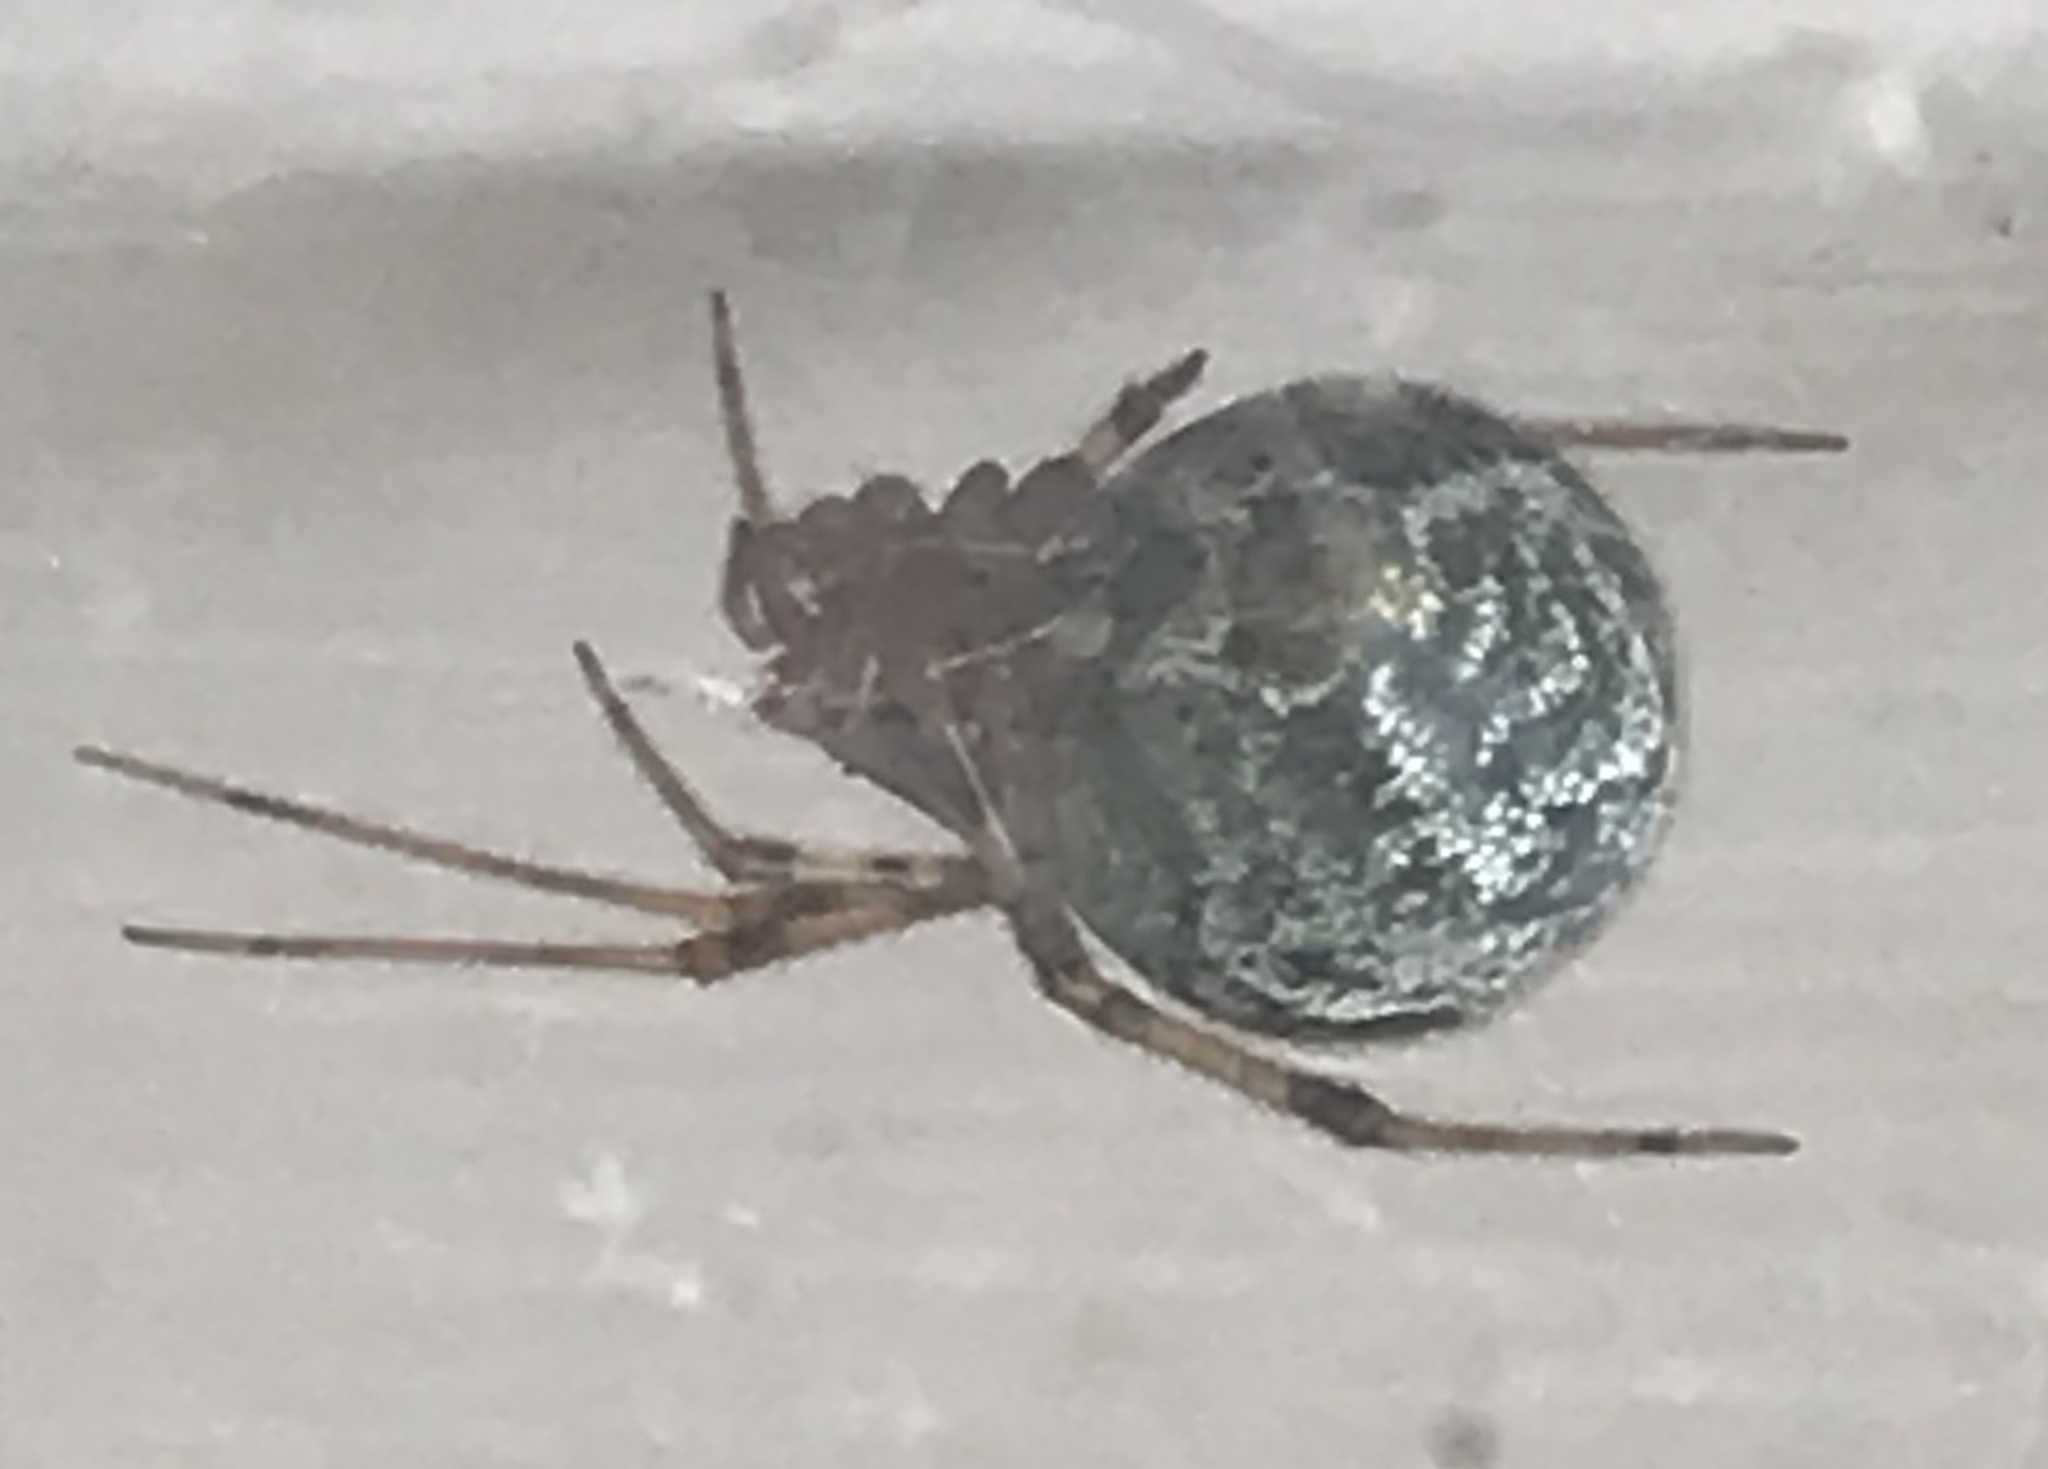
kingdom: Animalia
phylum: Arthropoda
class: Arachnida
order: Araneae
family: Theridiidae
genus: Parasteatoda
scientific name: Parasteatoda tepidariorum
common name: Common house spider
